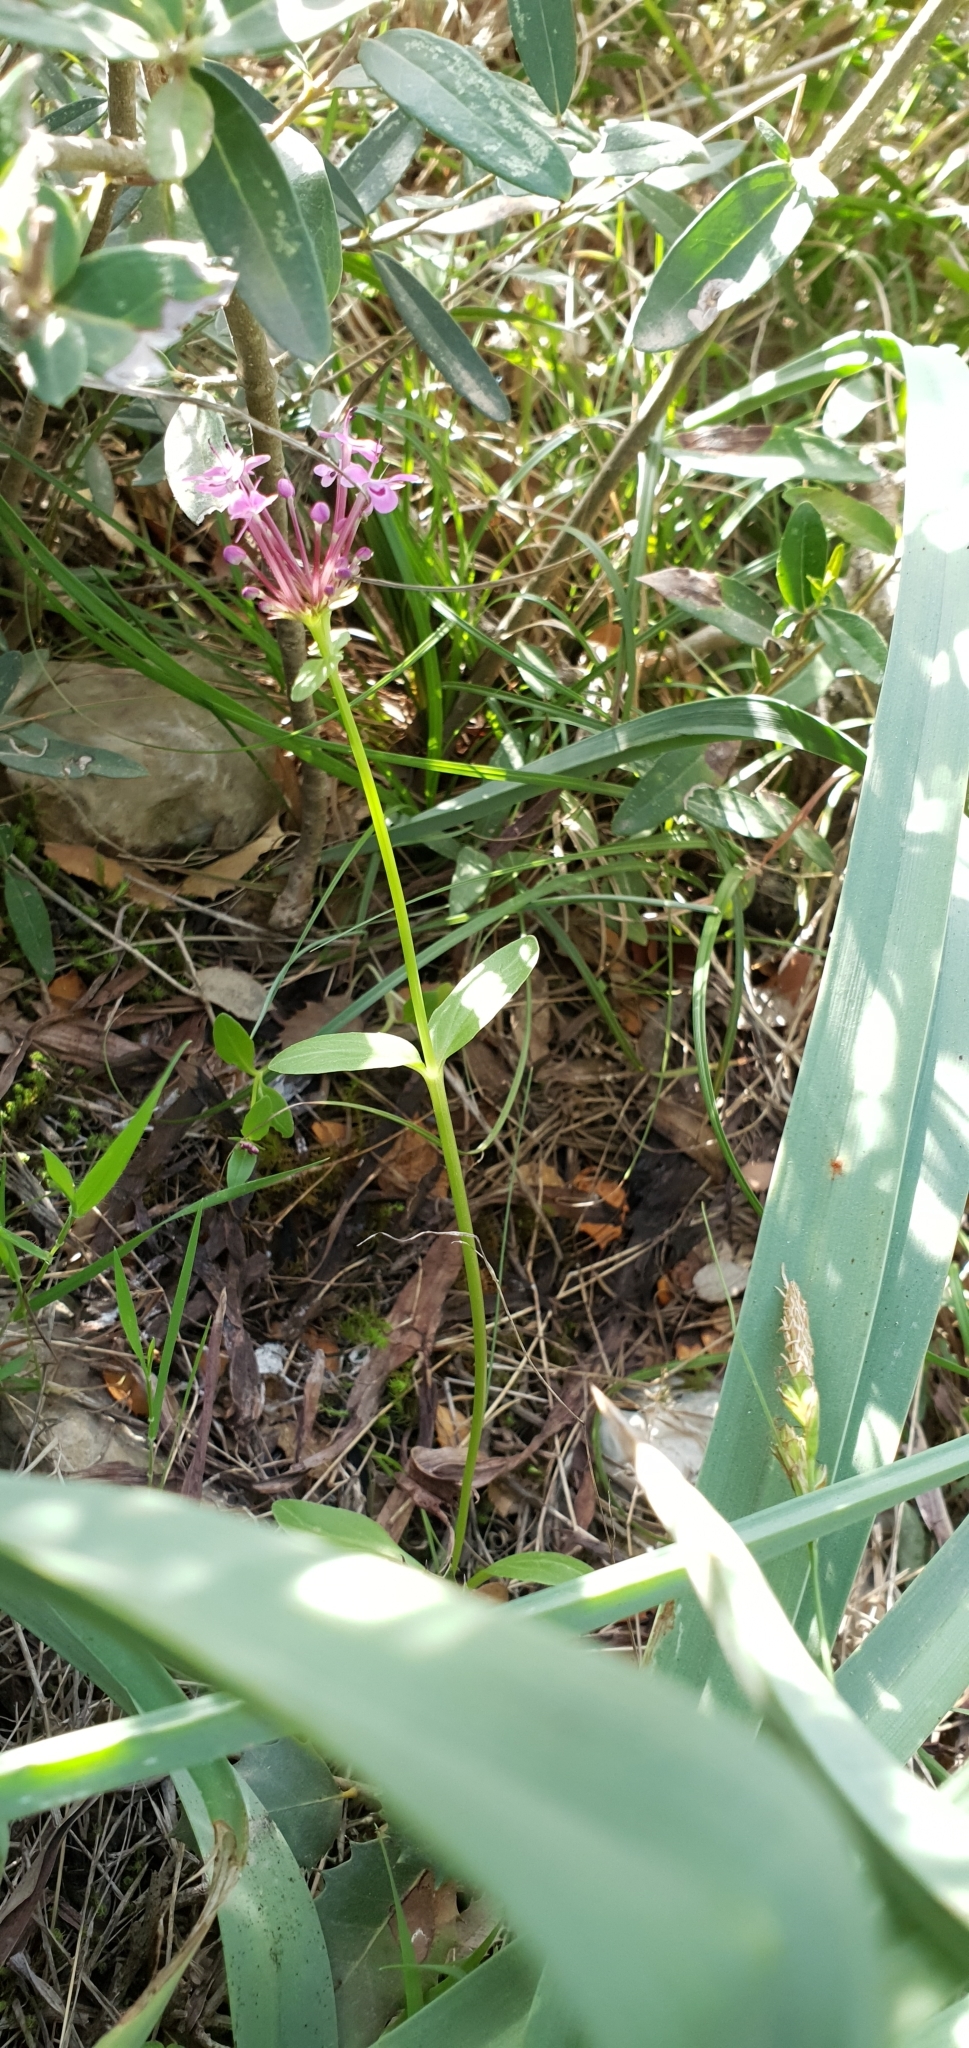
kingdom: Plantae
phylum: Tracheophyta
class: Magnoliopsida
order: Dipsacales
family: Caprifoliaceae
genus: Fedia
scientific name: Fedia graciliflora
